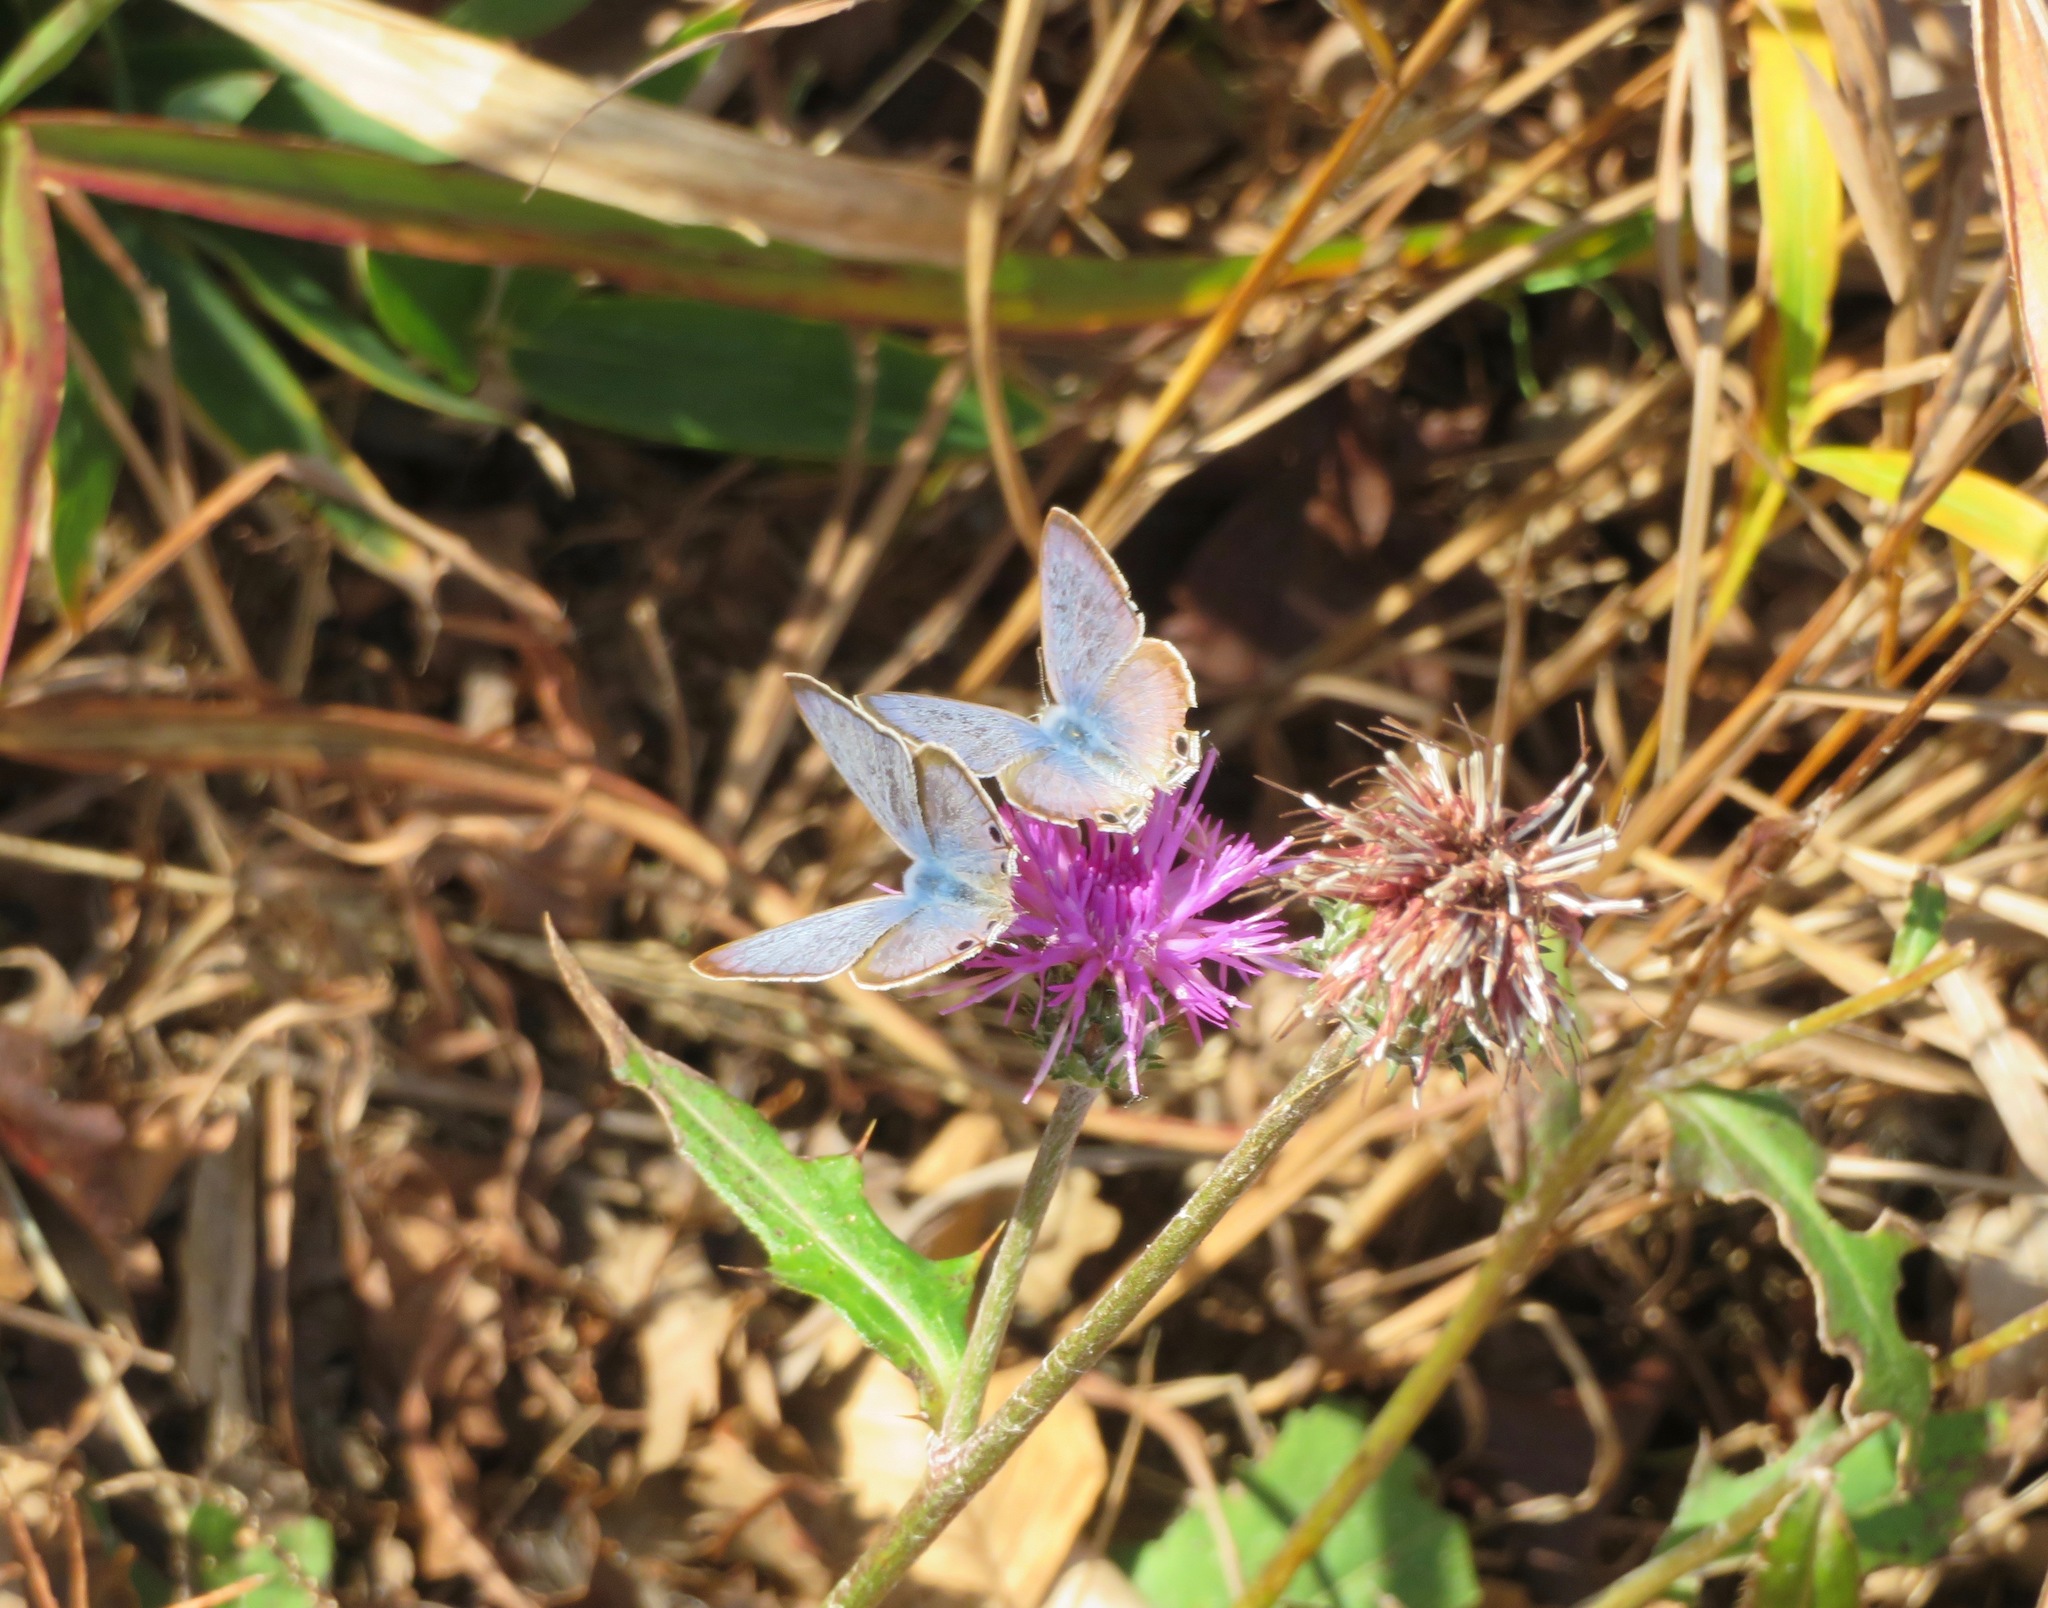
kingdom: Animalia
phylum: Arthropoda
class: Insecta
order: Lepidoptera
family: Lycaenidae
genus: Lampides
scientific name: Lampides boeticus
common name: Long-tailed blue
